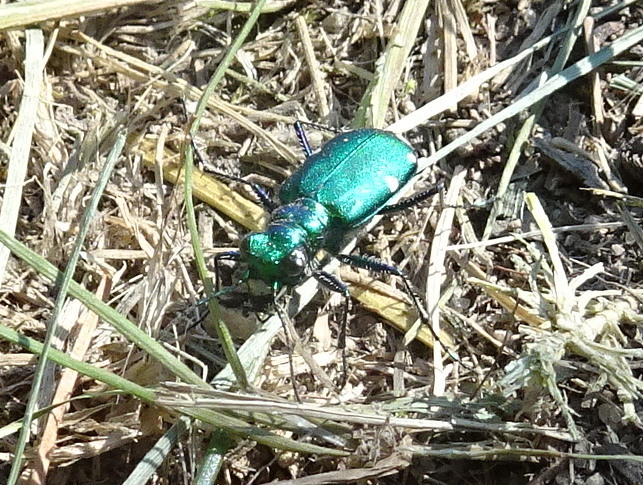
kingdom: Animalia
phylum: Arthropoda
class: Insecta
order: Coleoptera
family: Carabidae
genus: Cicindela
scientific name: Cicindela sexguttata
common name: Six-spotted tiger beetle
